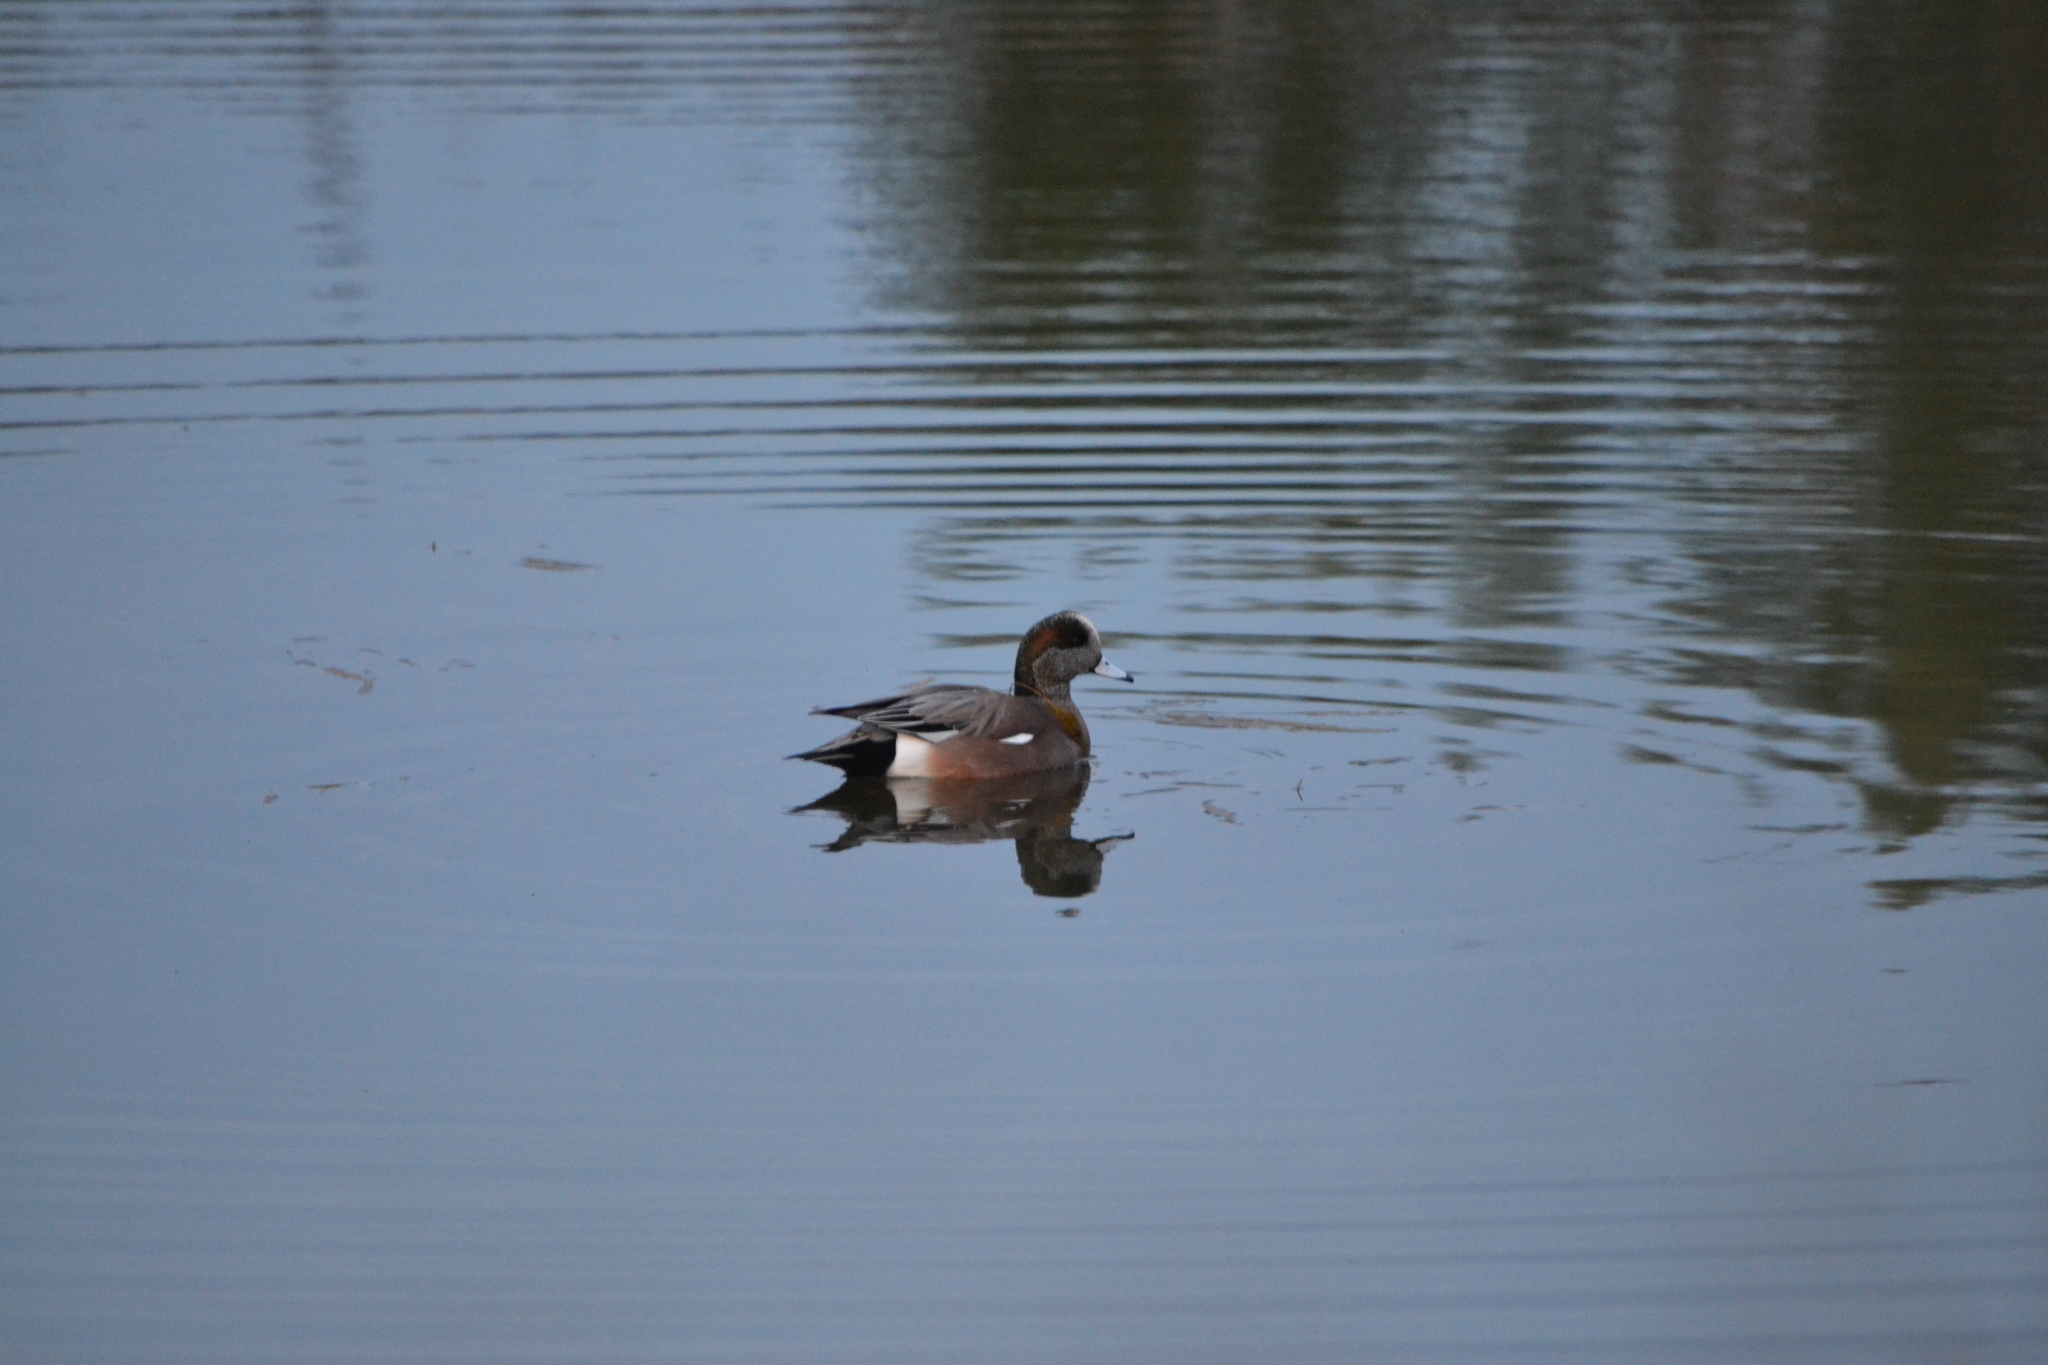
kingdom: Animalia
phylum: Chordata
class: Aves
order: Anseriformes
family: Anatidae
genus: Mareca
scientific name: Mareca americana
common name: American wigeon
